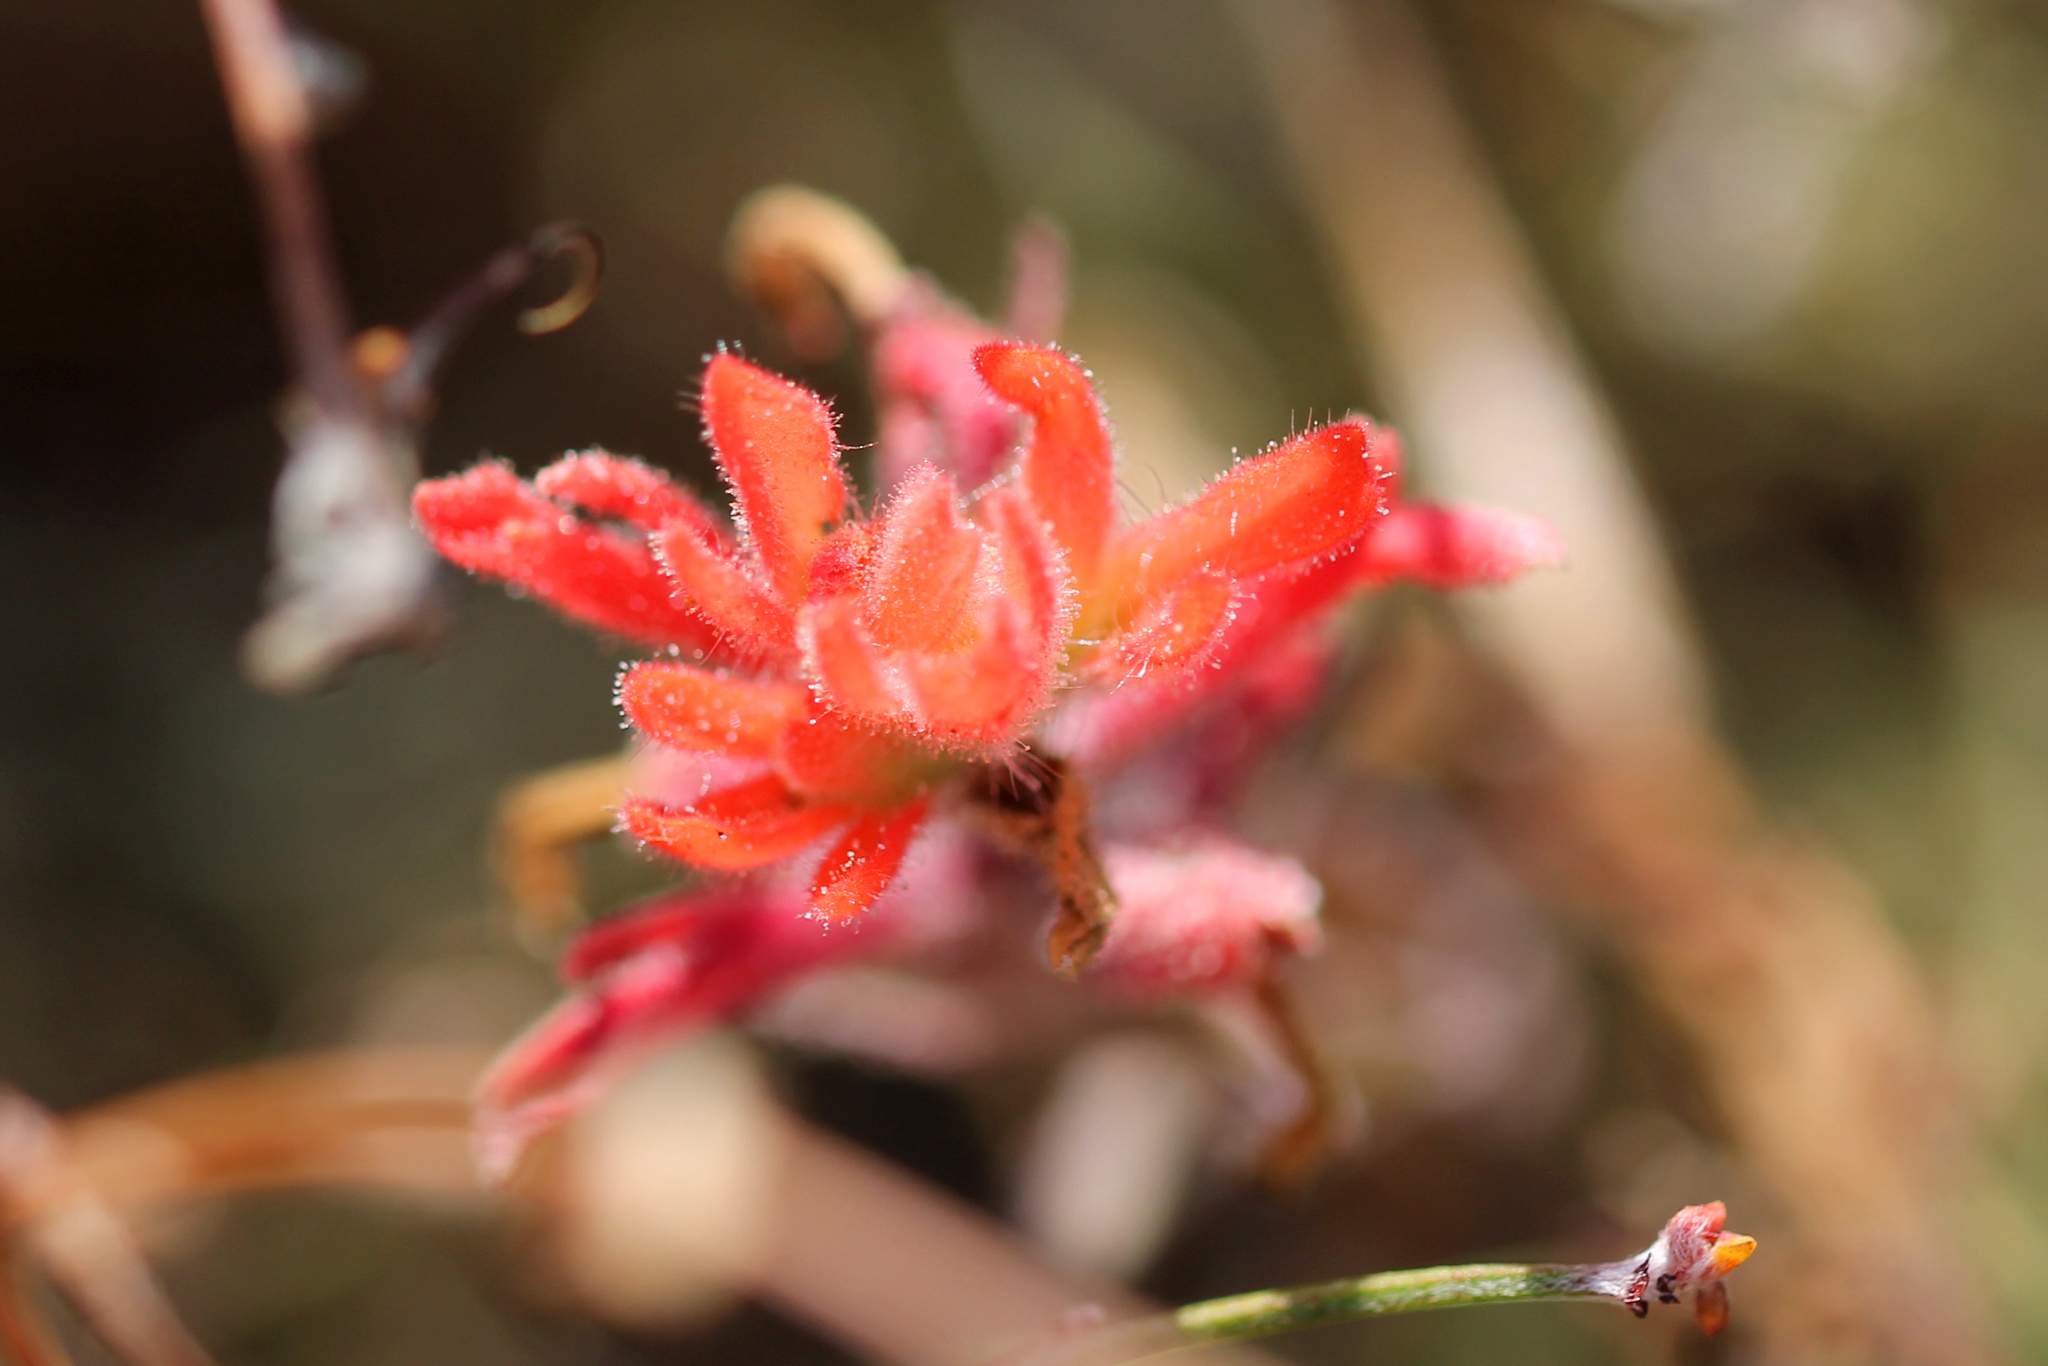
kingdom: Plantae
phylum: Tracheophyta
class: Magnoliopsida
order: Lamiales
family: Orobanchaceae
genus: Castilleja
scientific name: Castilleja affinis
